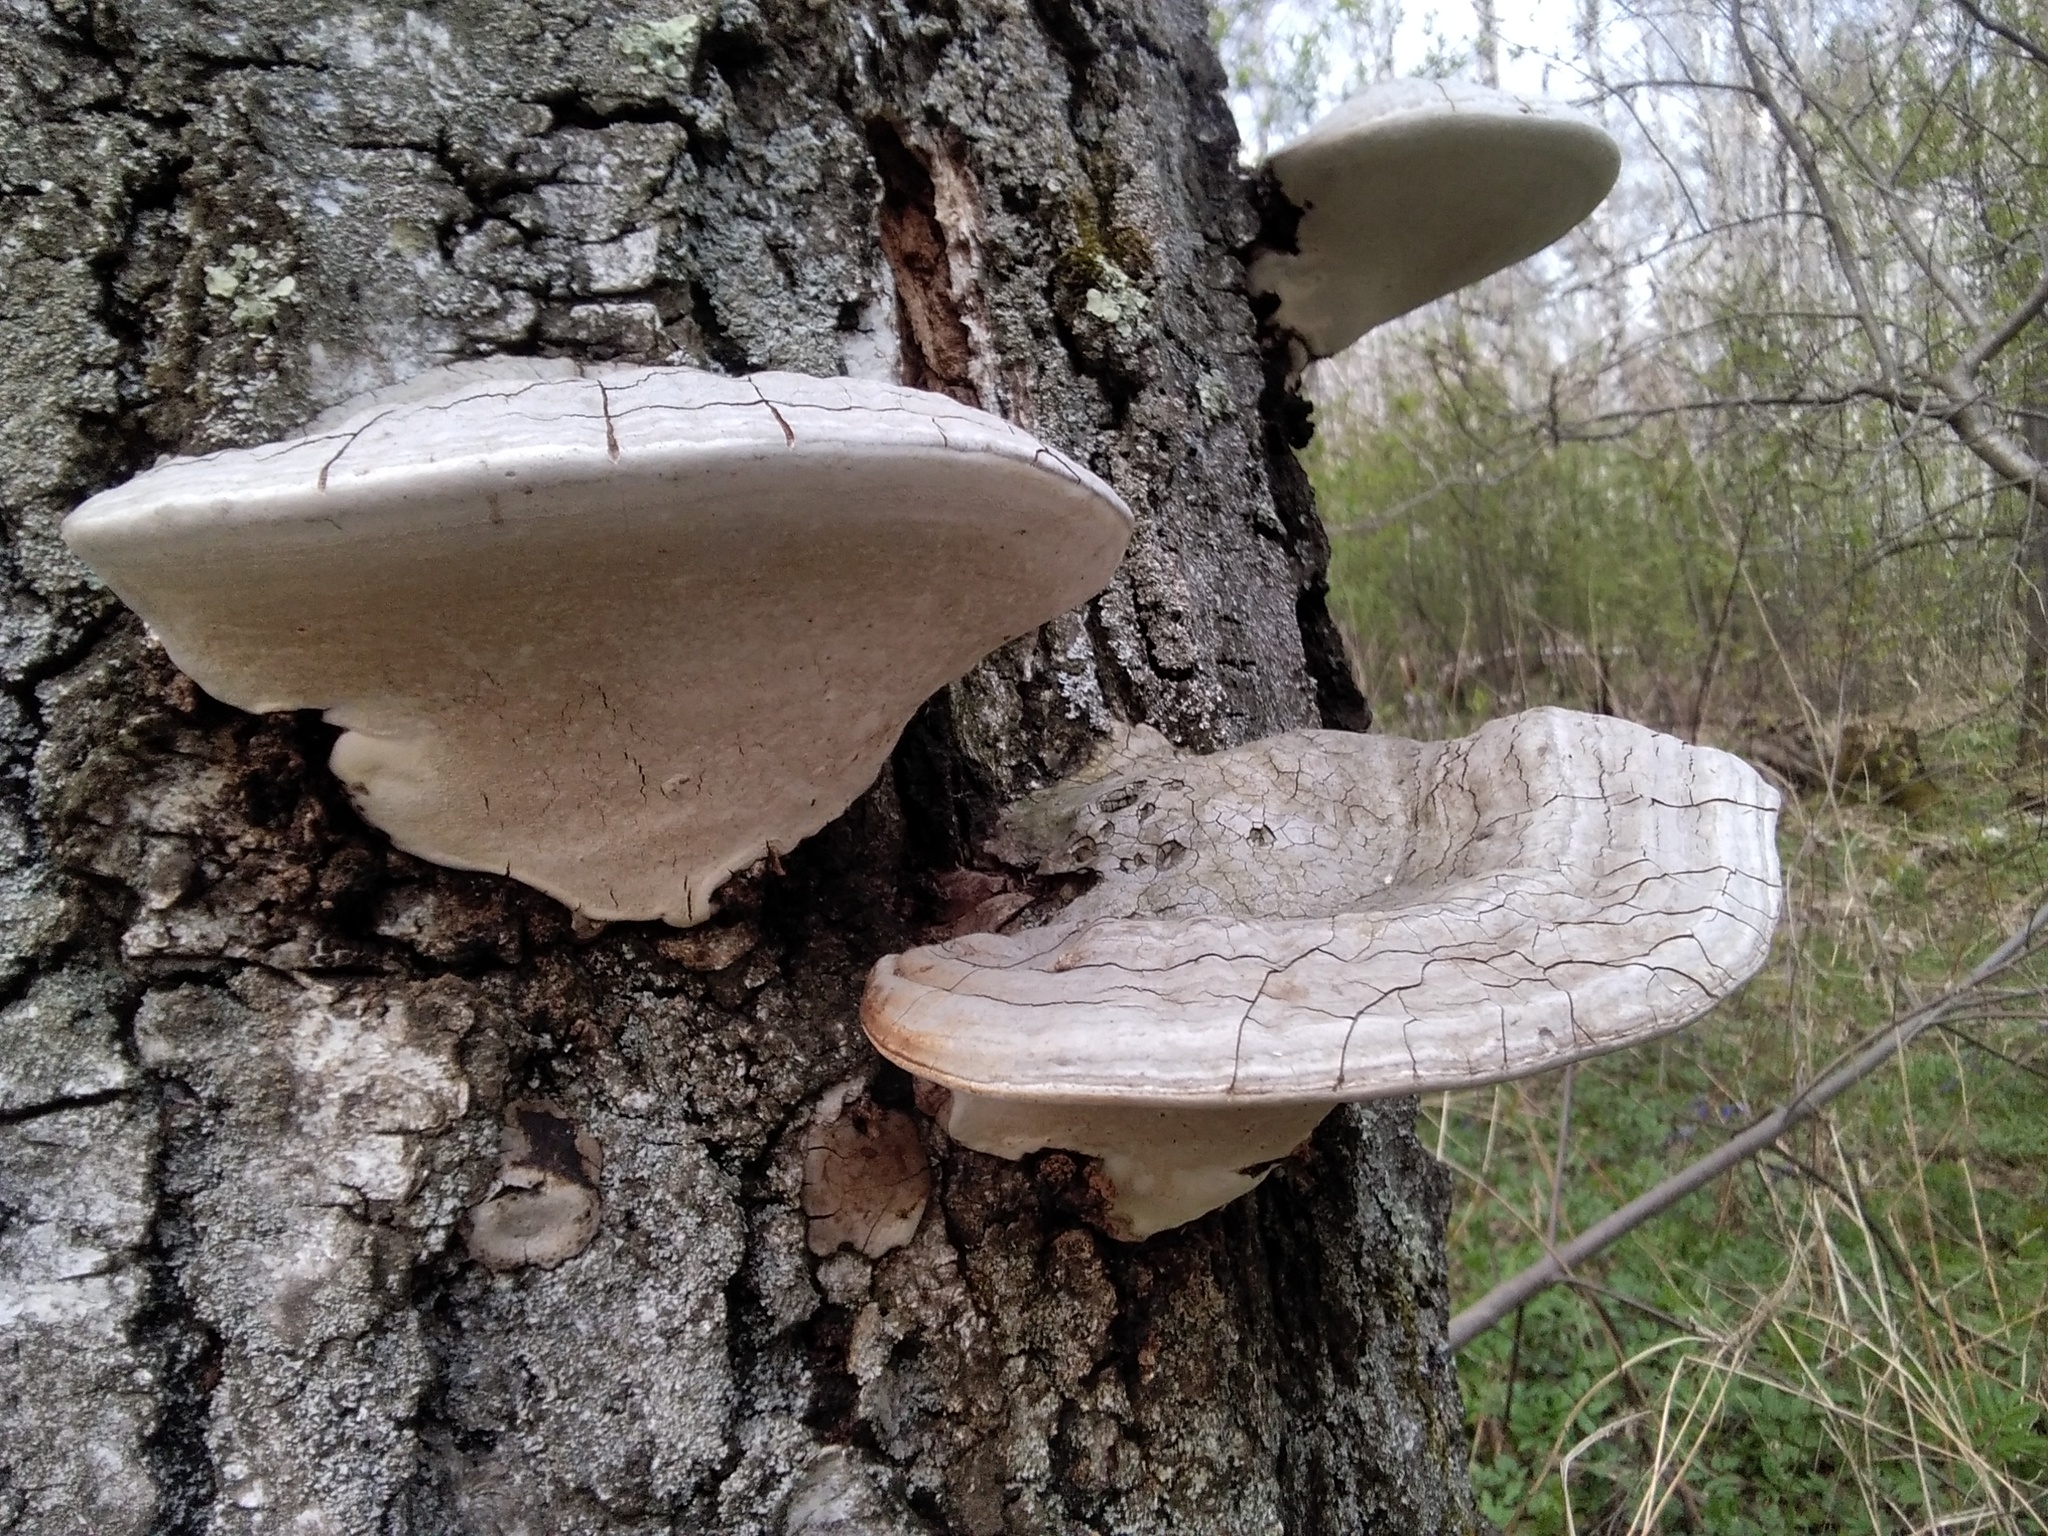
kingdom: Fungi
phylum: Basidiomycota
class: Agaricomycetes
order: Polyporales
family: Polyporaceae
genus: Ganoderma
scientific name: Ganoderma applanatum
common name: Artist's bracket
